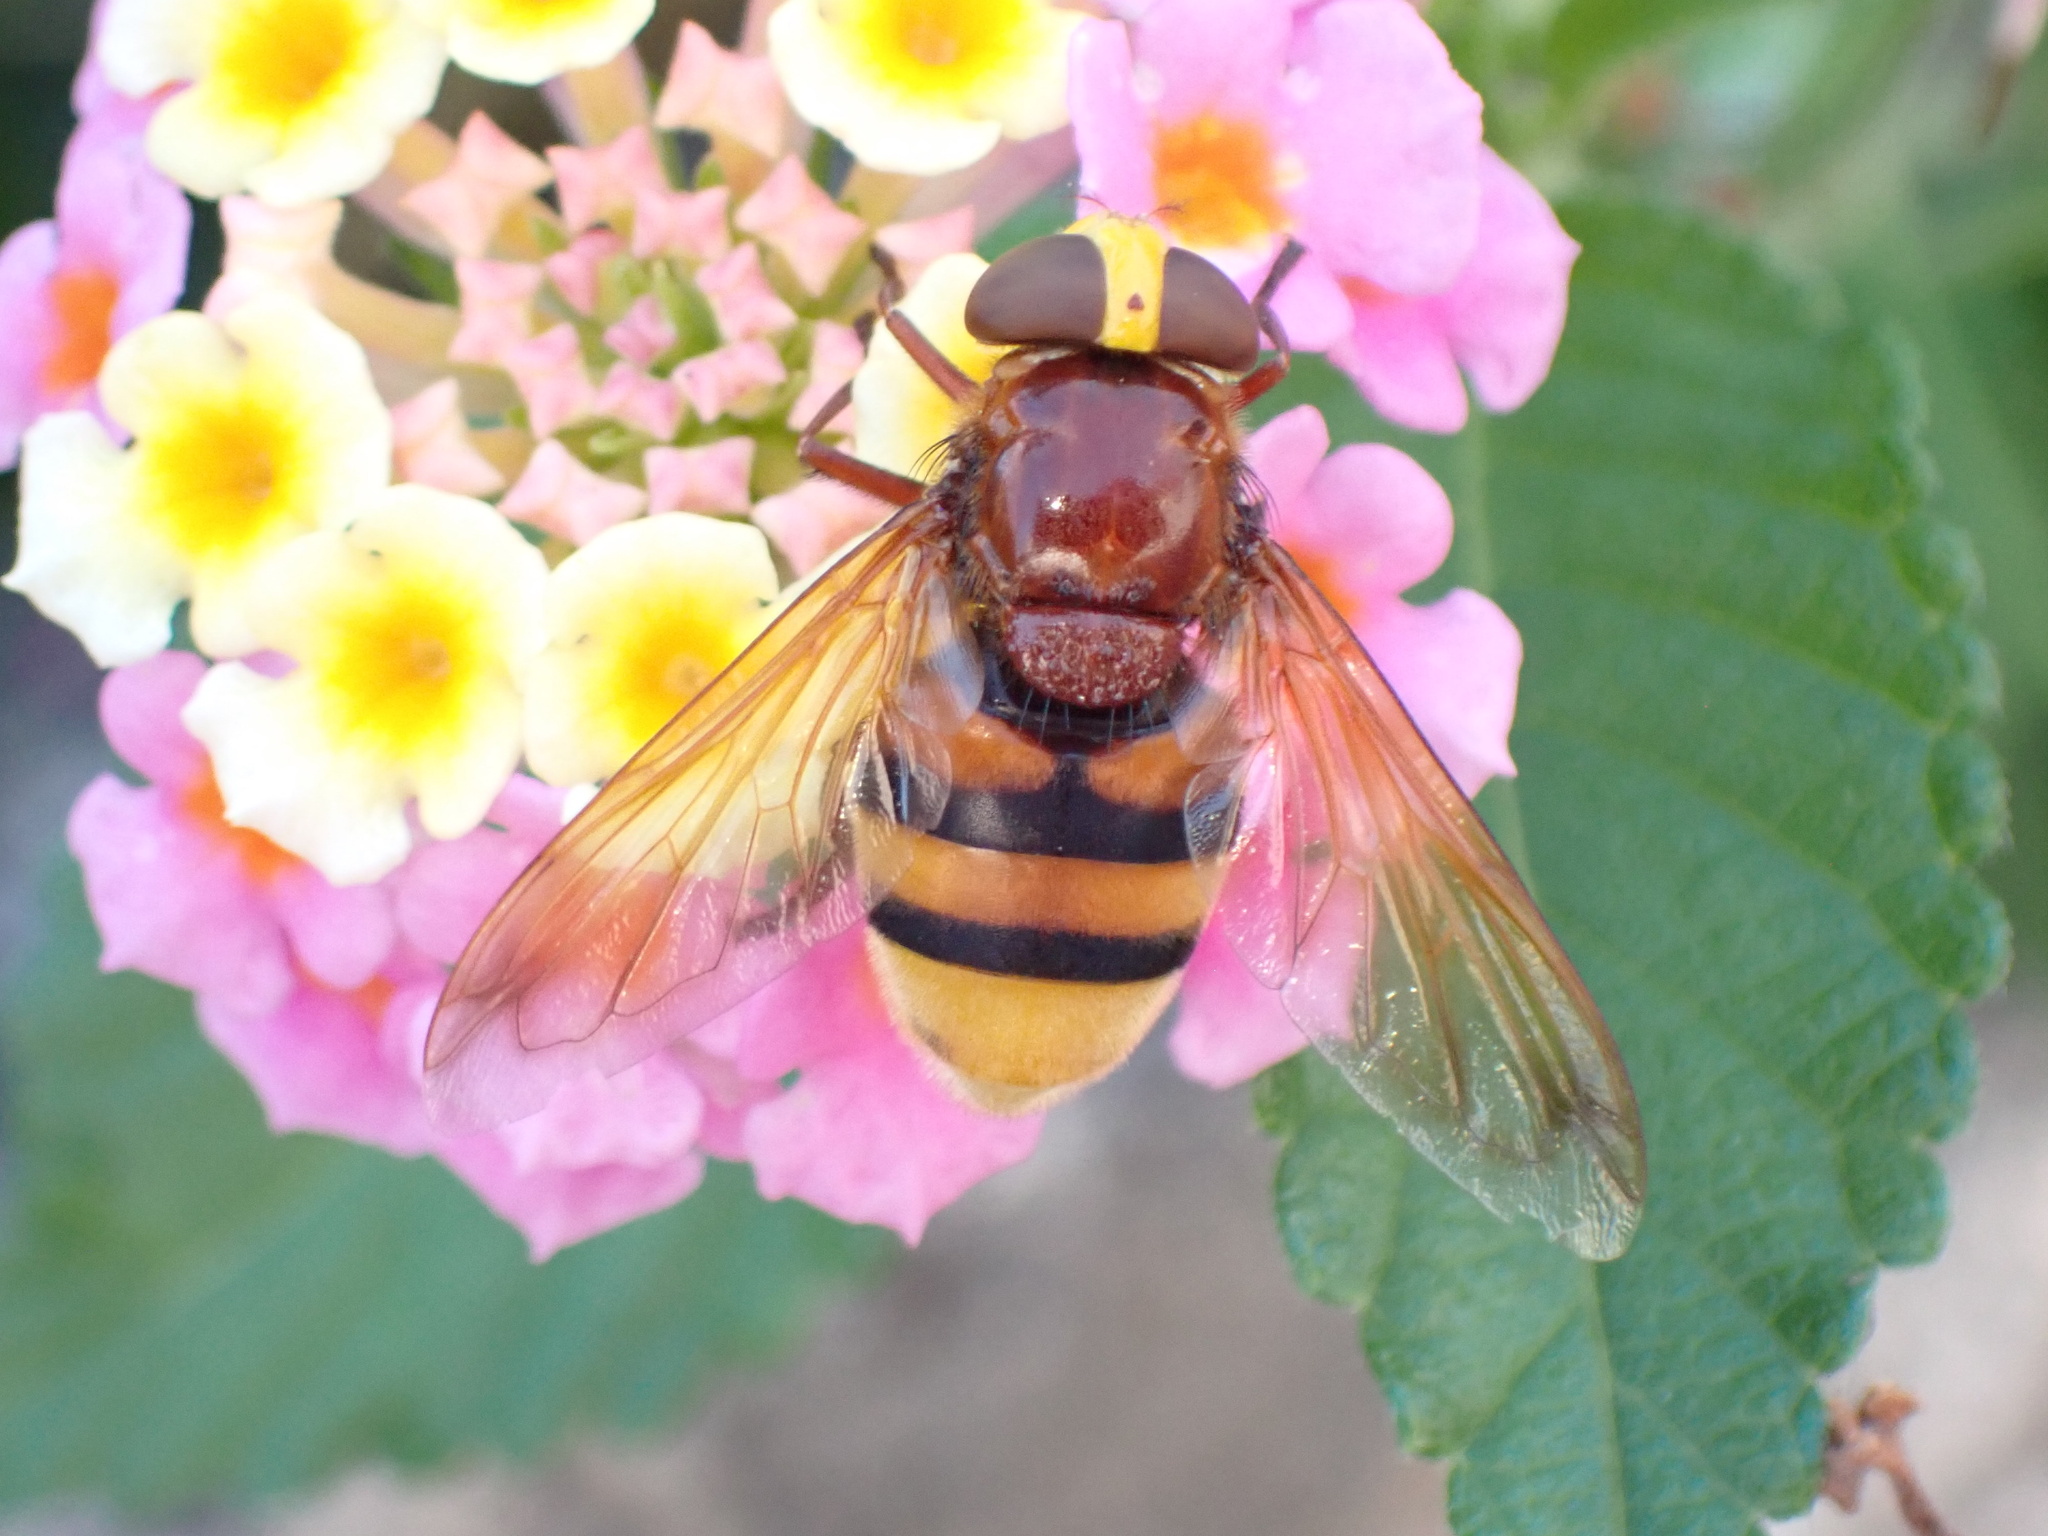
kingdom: Animalia
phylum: Arthropoda
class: Insecta
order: Diptera
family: Syrphidae
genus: Volucella
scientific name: Volucella zonaria
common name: Hornet hoverfly
